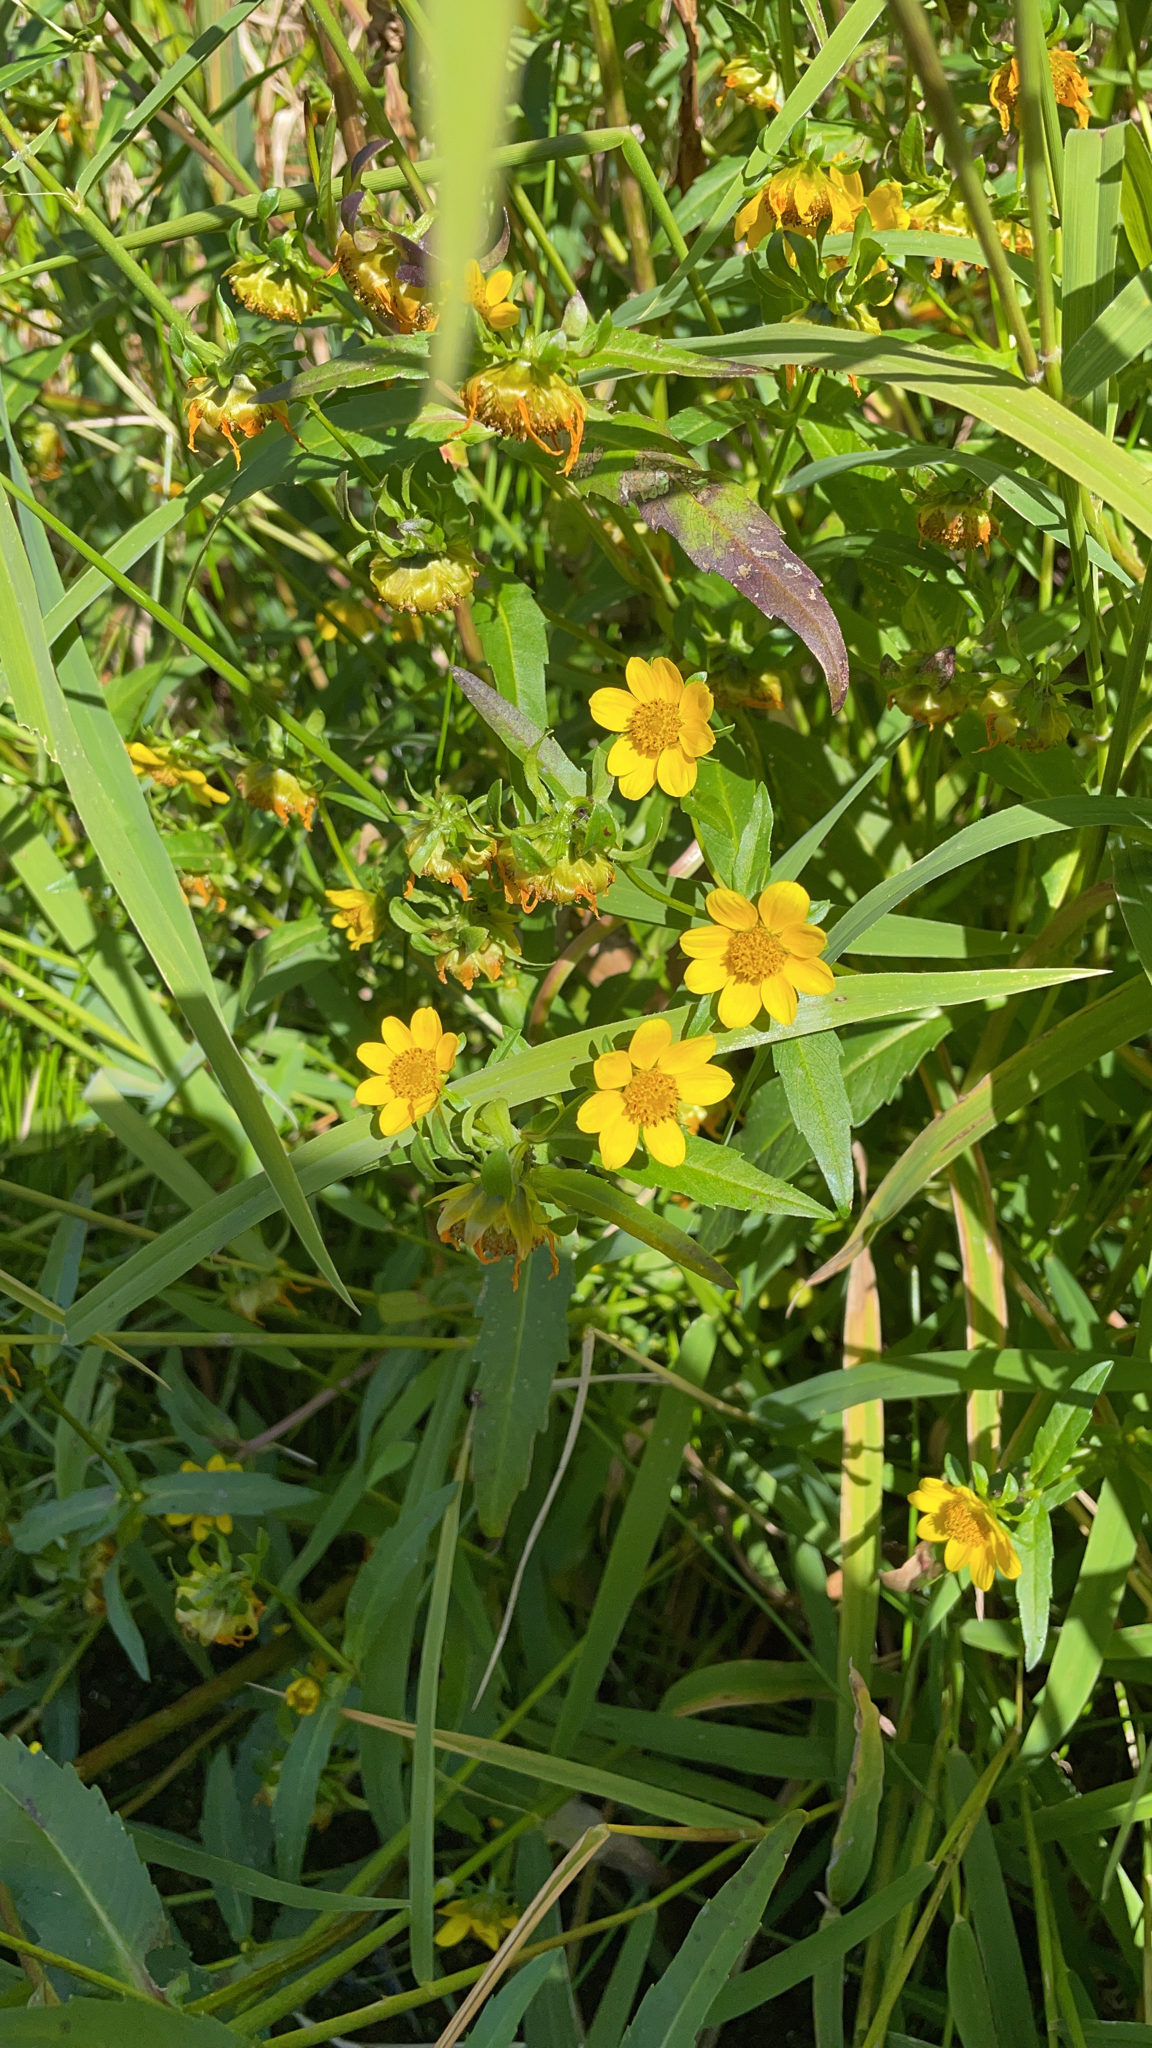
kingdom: Plantae
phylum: Tracheophyta
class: Magnoliopsida
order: Asterales
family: Asteraceae
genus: Bidens
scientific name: Bidens cernua
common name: Nodding bur-marigold
